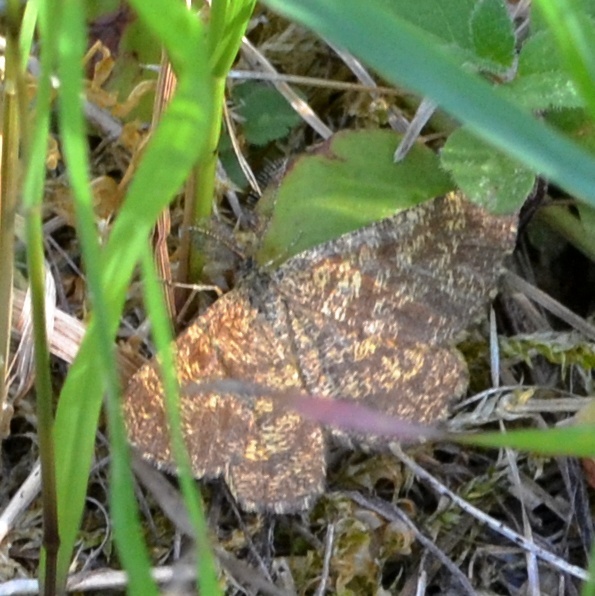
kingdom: Animalia
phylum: Arthropoda
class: Insecta
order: Lepidoptera
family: Geometridae
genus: Ematurga
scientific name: Ematurga atomaria
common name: Common heath
